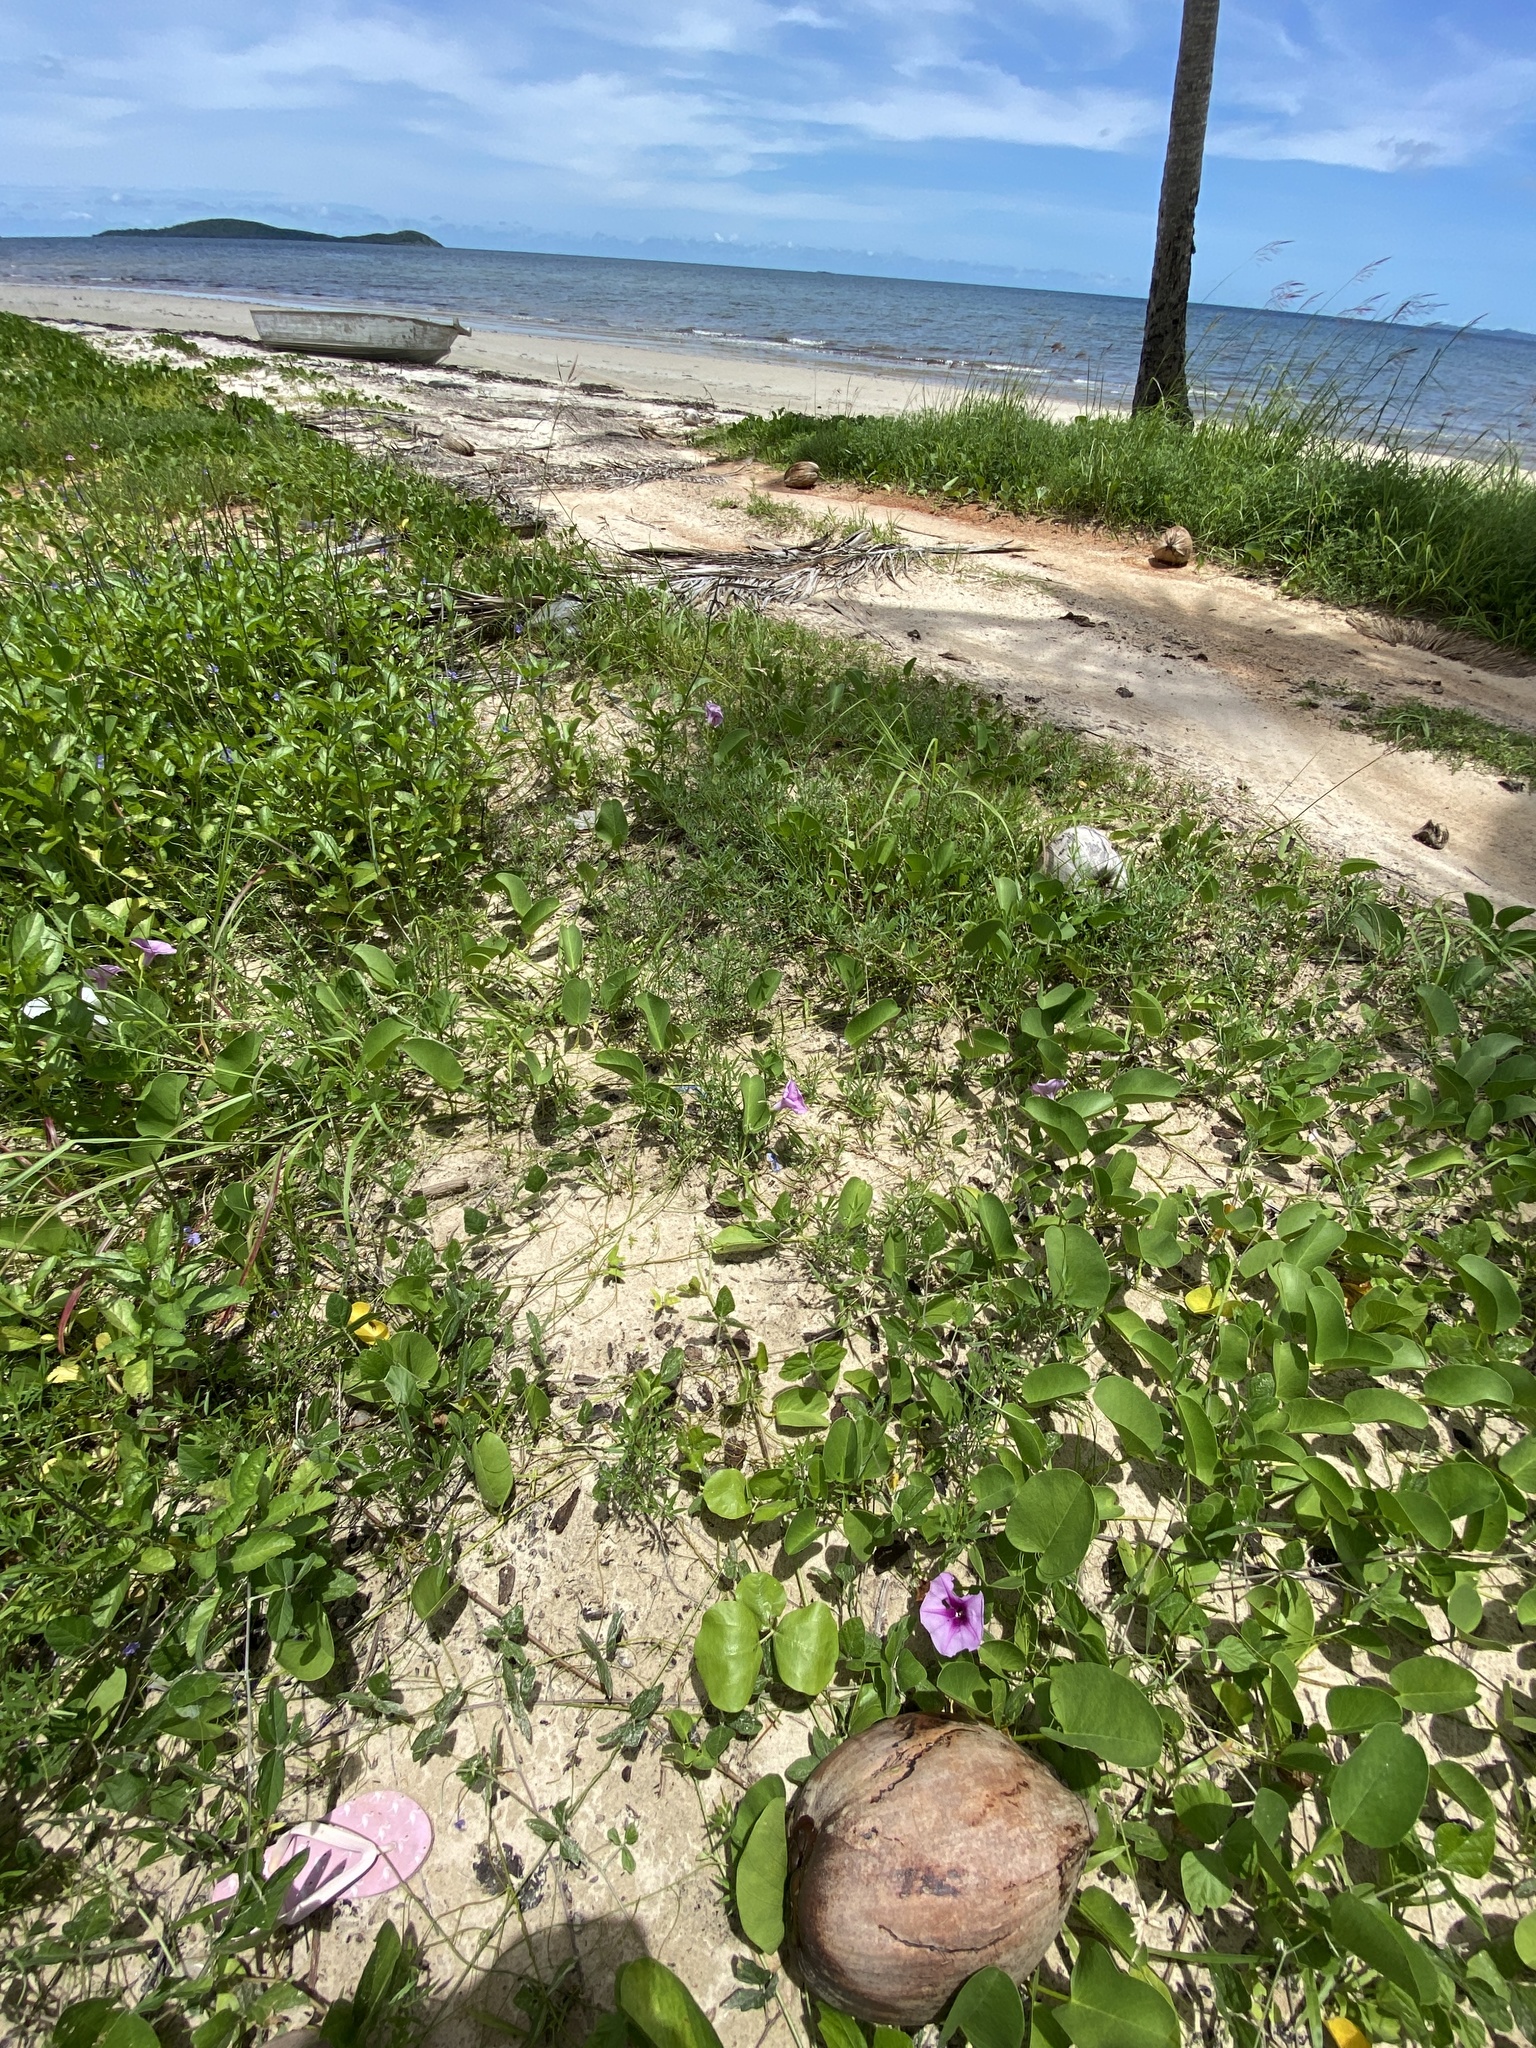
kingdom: Plantae
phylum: Tracheophyta
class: Magnoliopsida
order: Solanales
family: Convolvulaceae
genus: Ipomoea
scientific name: Ipomoea pes-caprae
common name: Beach morning glory
